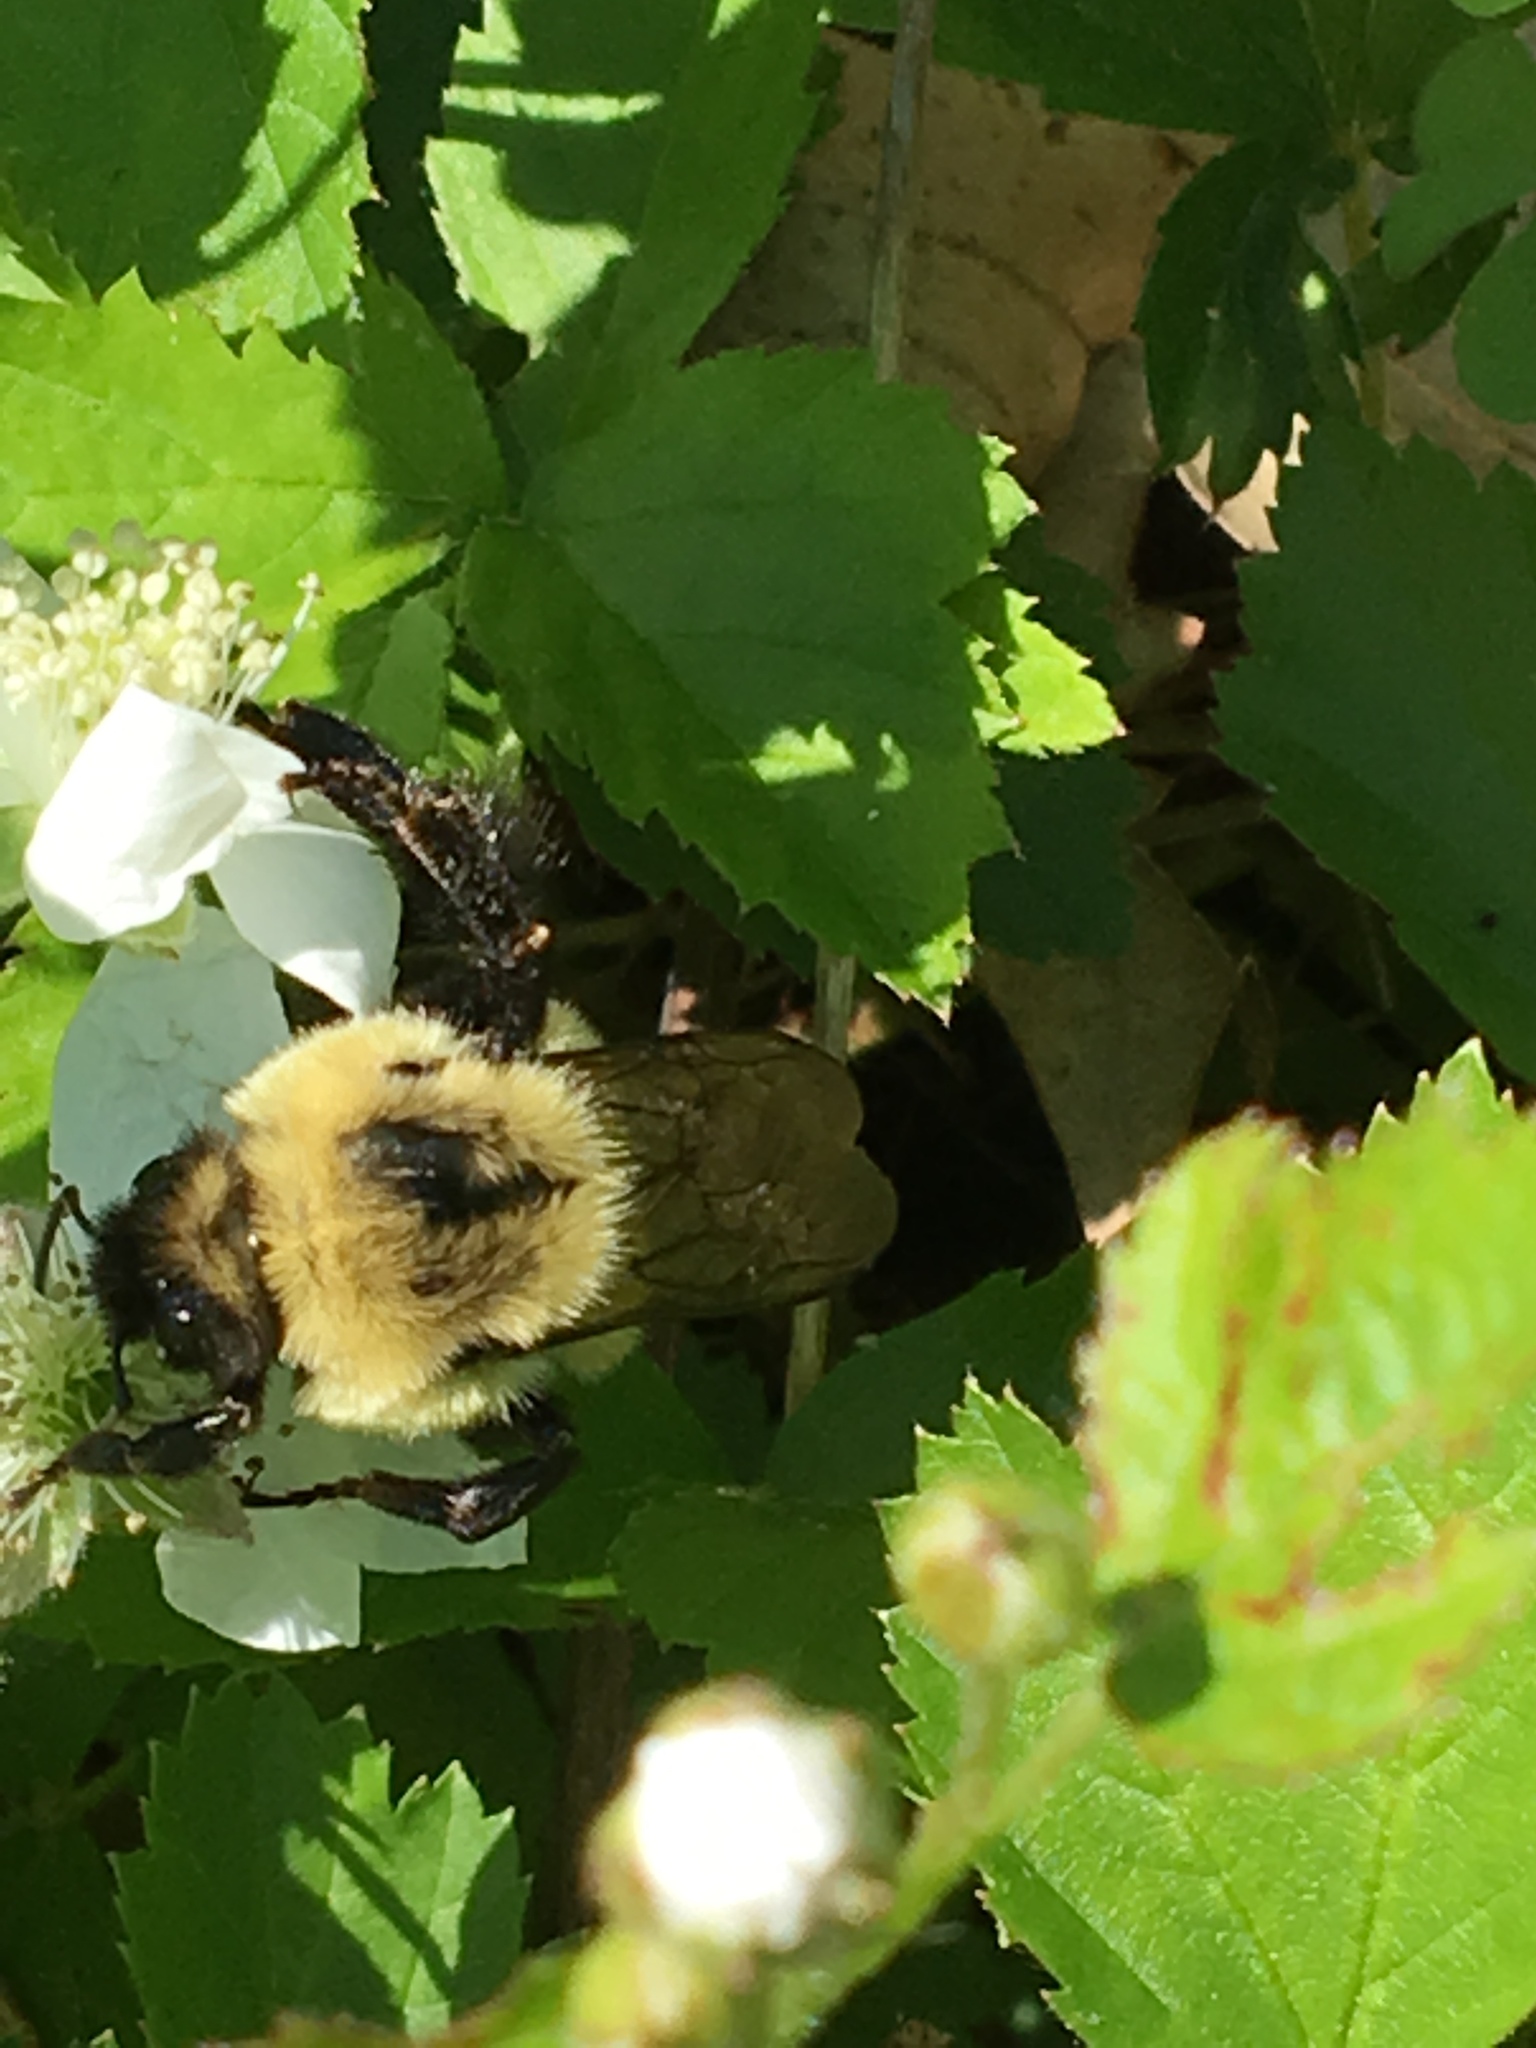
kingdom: Animalia
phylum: Arthropoda
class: Insecta
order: Hymenoptera
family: Apidae
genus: Bombus
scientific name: Bombus impatiens
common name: Common eastern bumble bee
